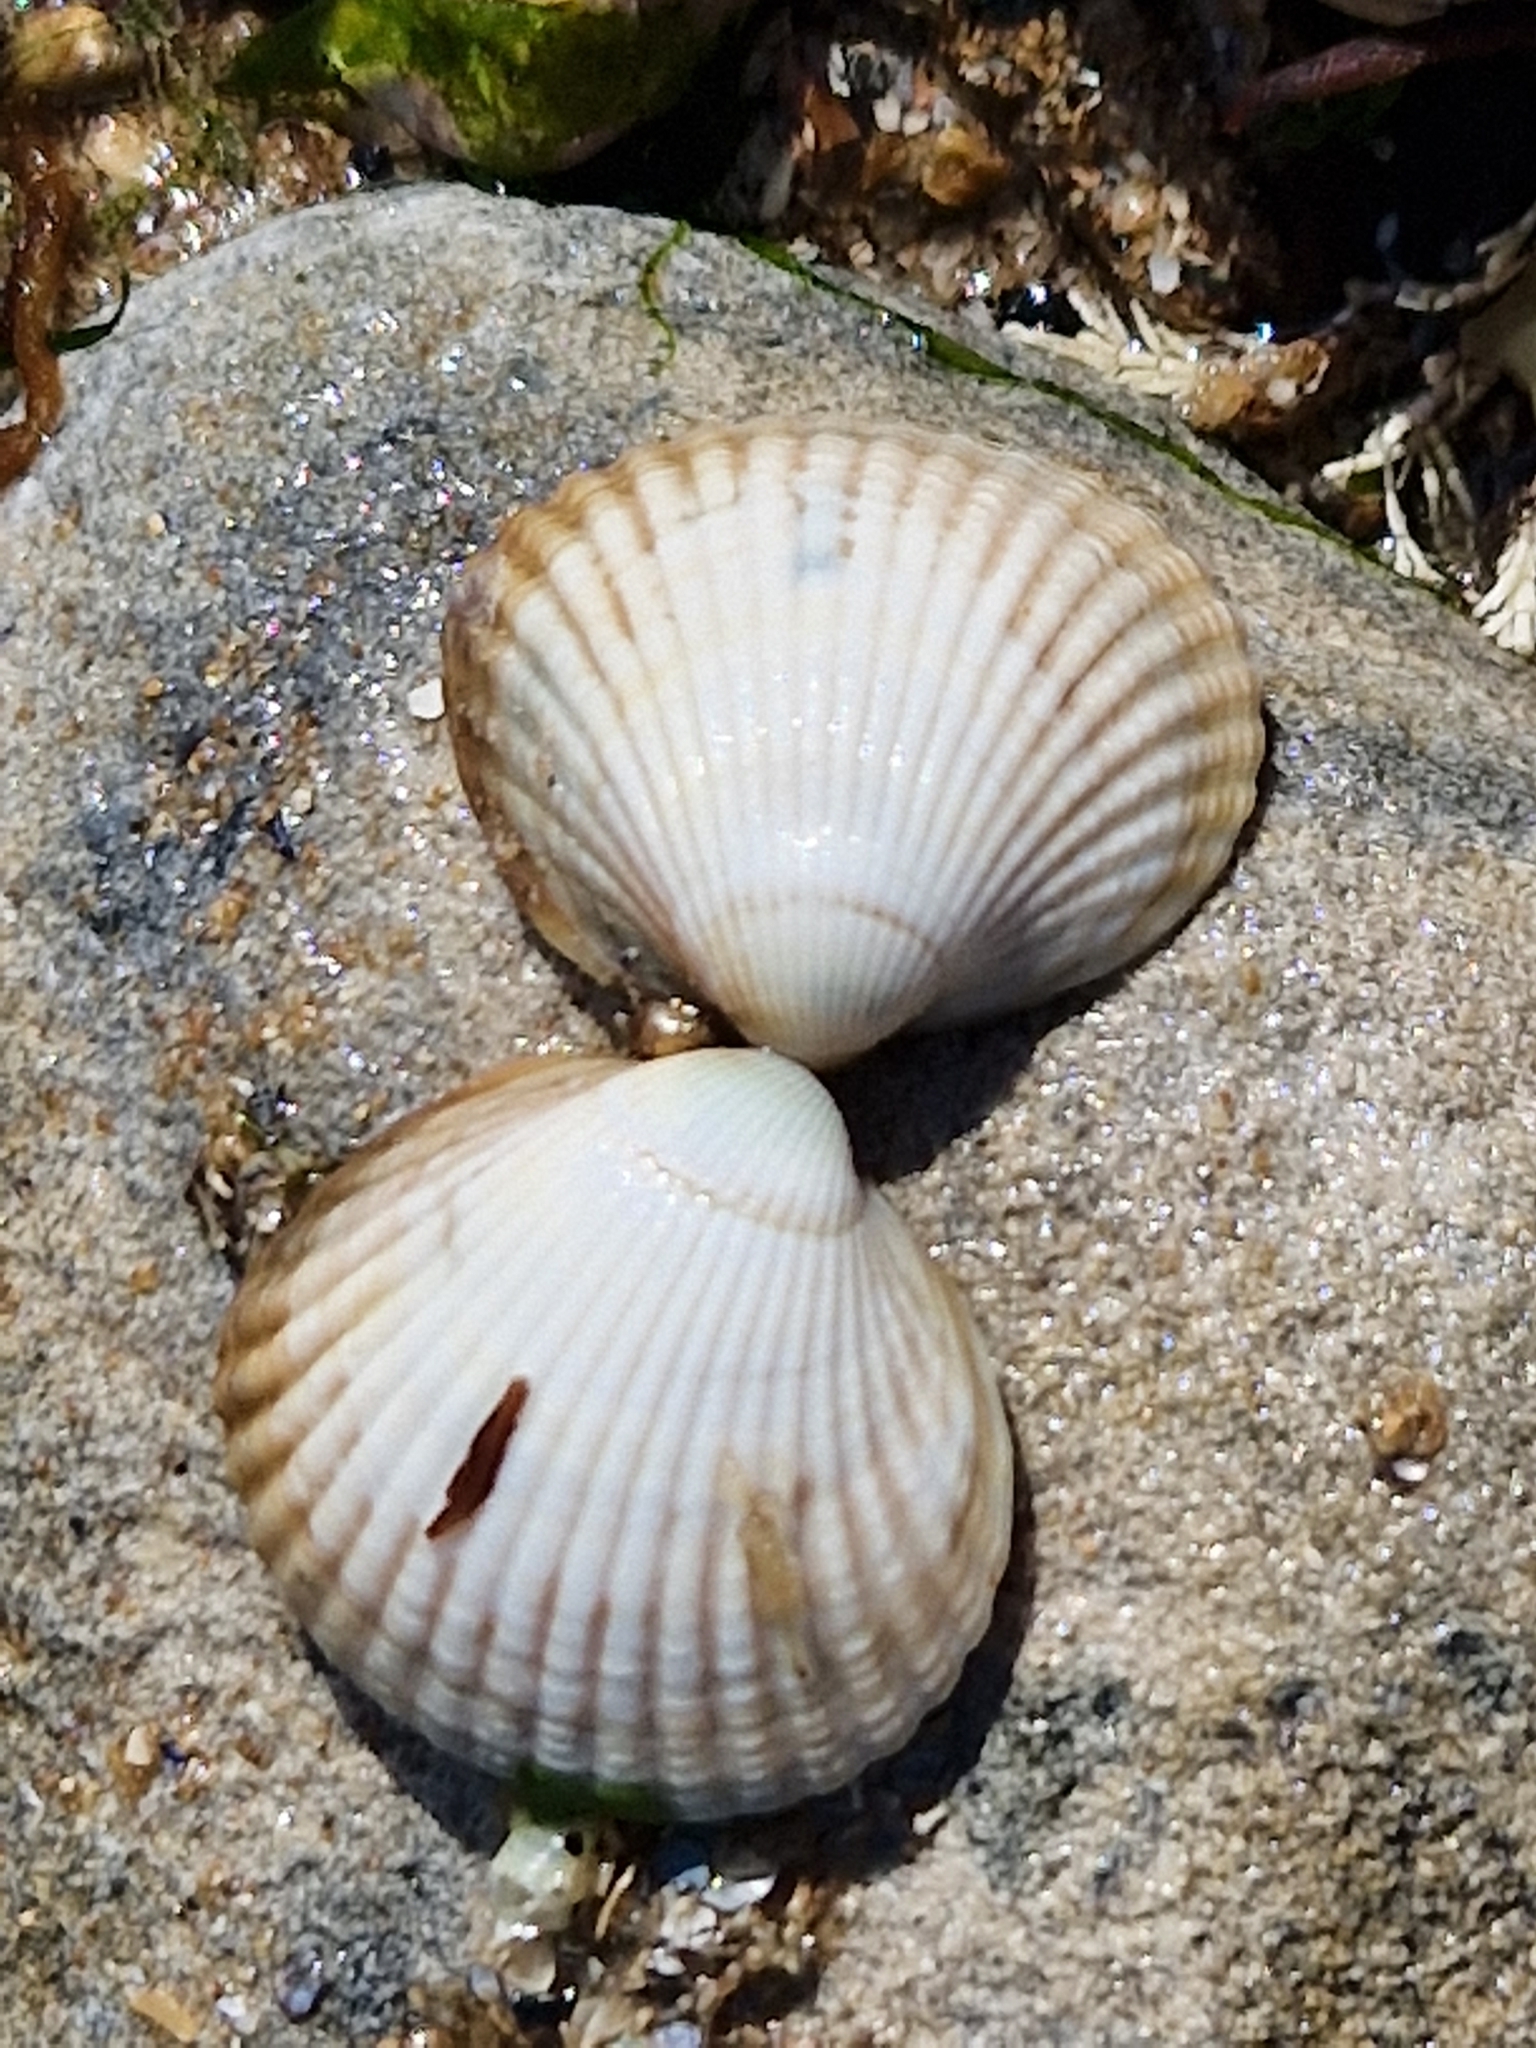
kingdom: Animalia
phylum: Mollusca
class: Bivalvia
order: Cardiida
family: Cardiidae
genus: Cerastoderma
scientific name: Cerastoderma edule
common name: Common cockle
